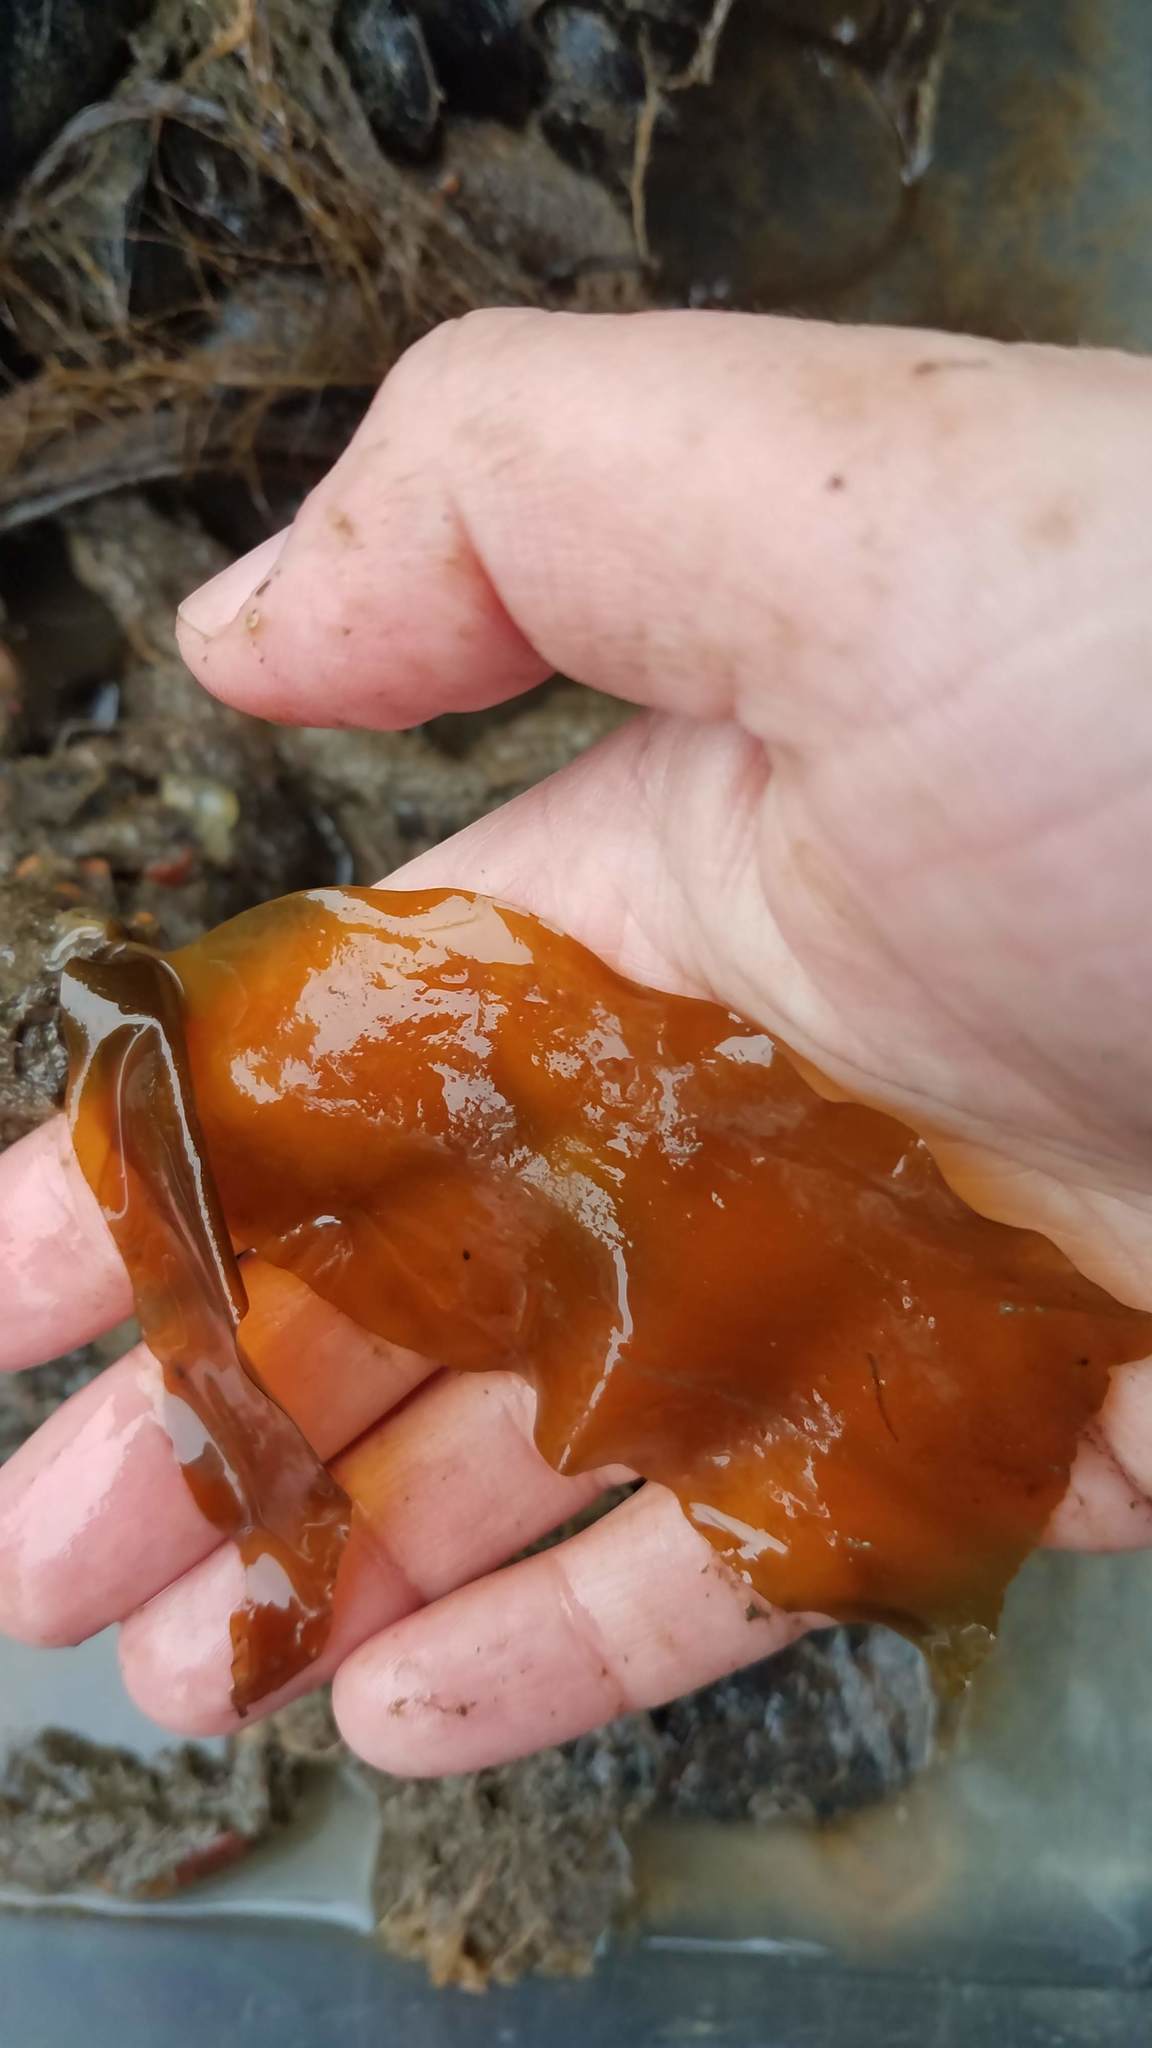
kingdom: Chromista
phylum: Ochrophyta
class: Phaeophyceae
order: Laminariales
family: Laminariaceae
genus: Saccharina
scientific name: Saccharina latissima
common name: Poor man's weather glass
